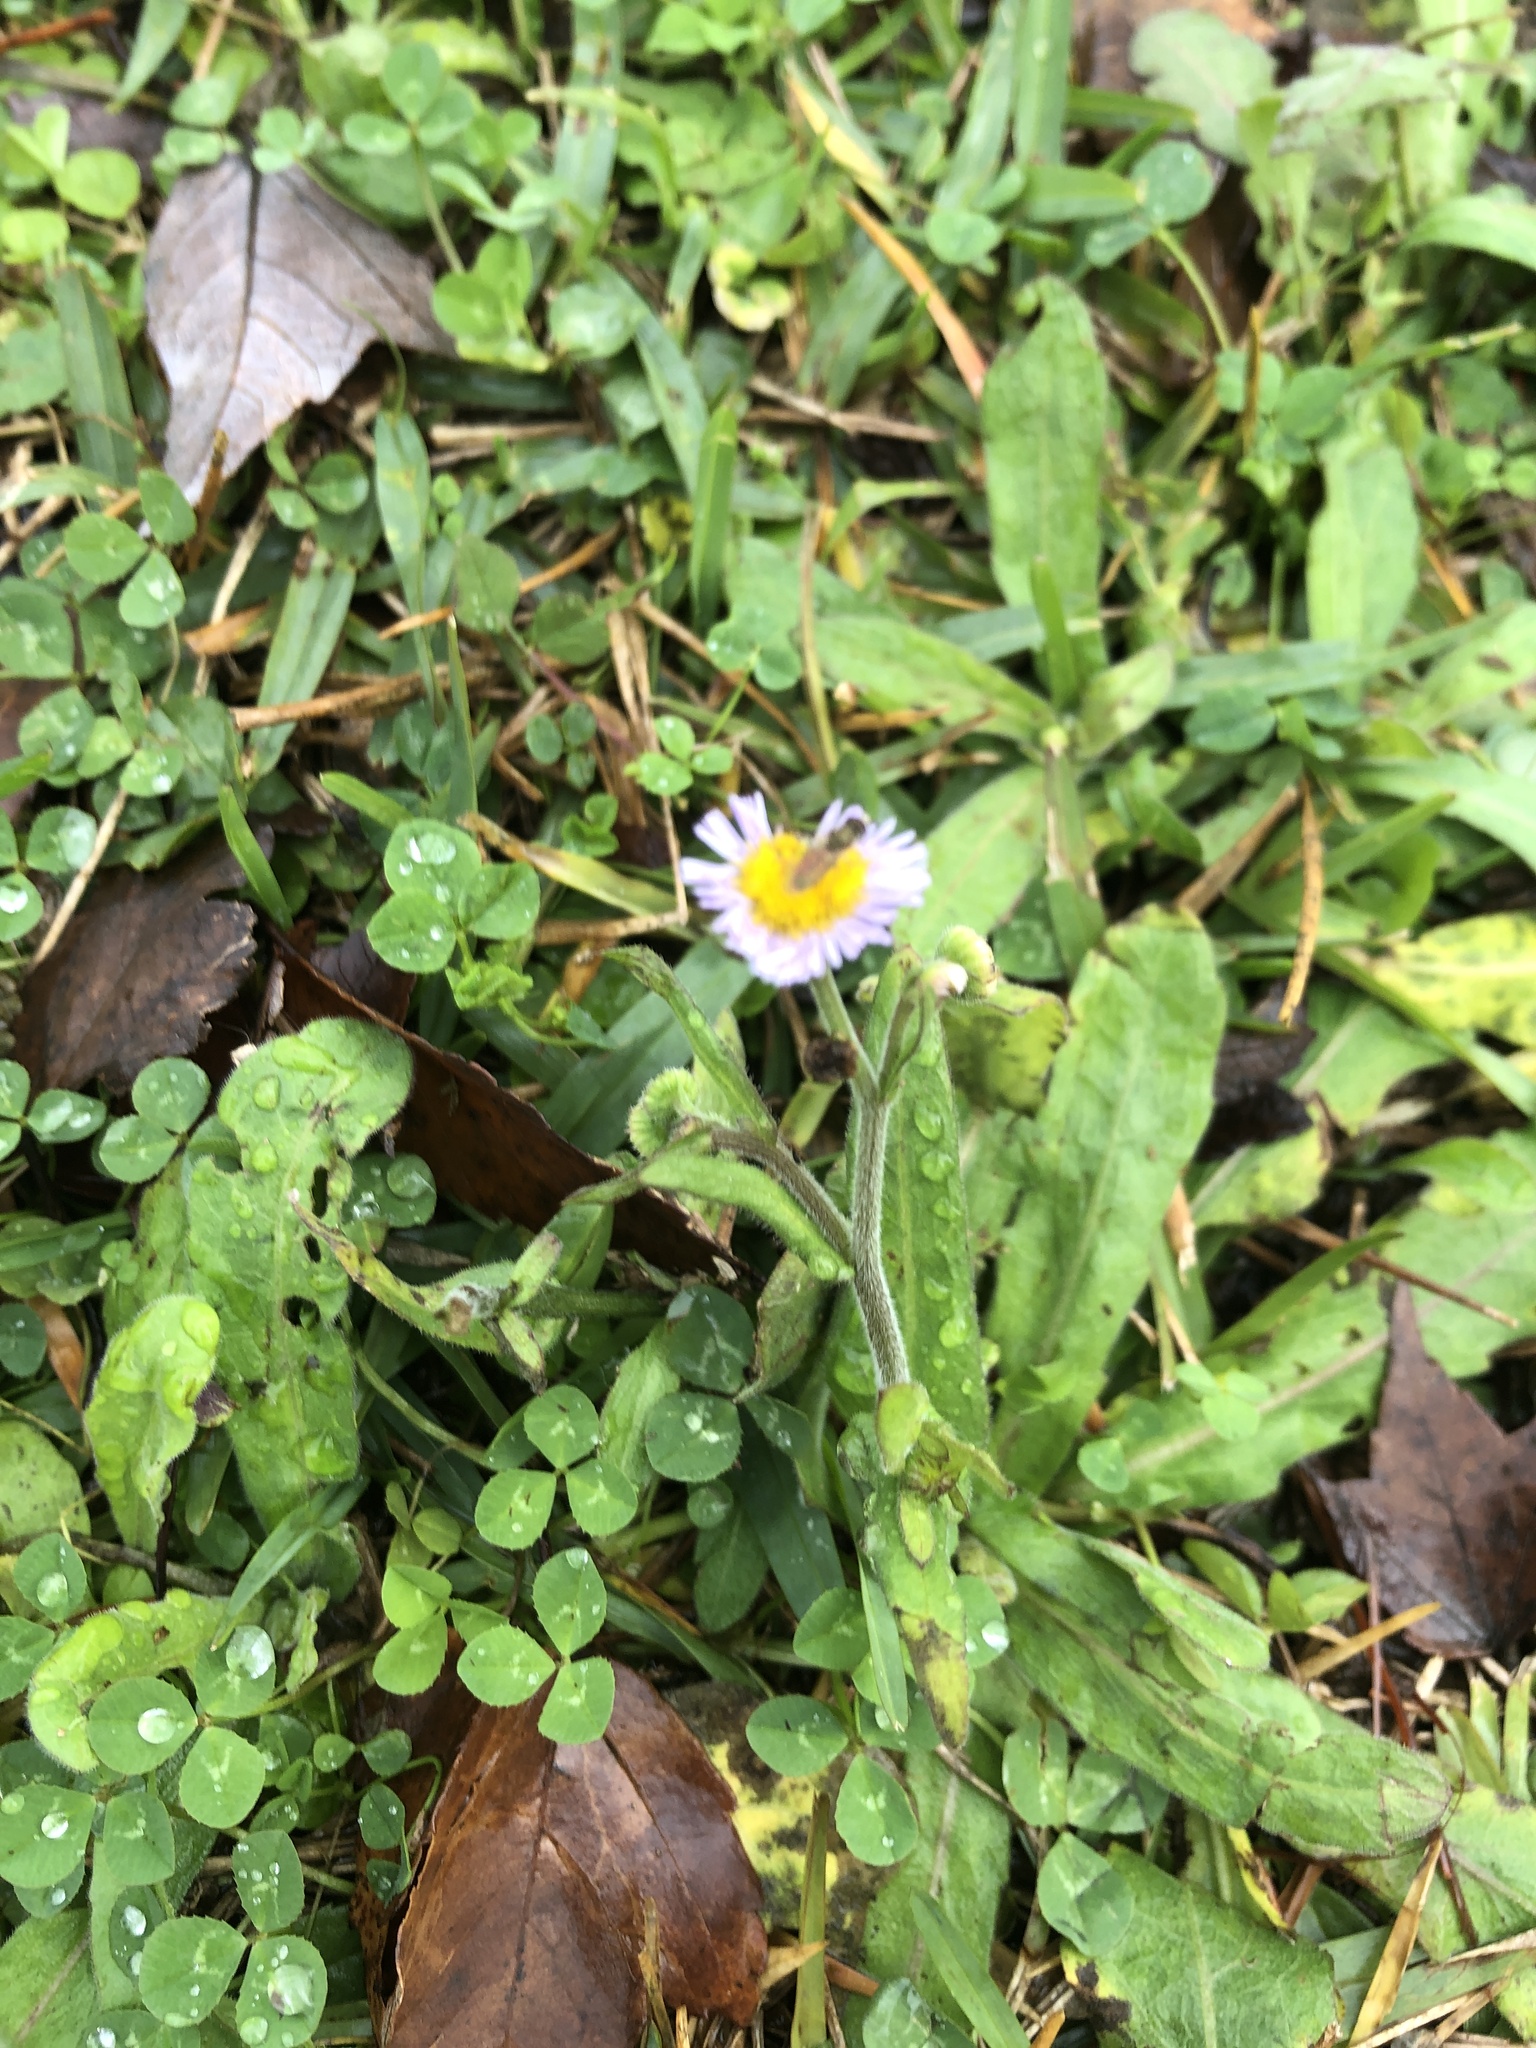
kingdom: Plantae
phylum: Tracheophyta
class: Magnoliopsida
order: Asterales
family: Asteraceae
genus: Erigeron
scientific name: Erigeron quercifolius
